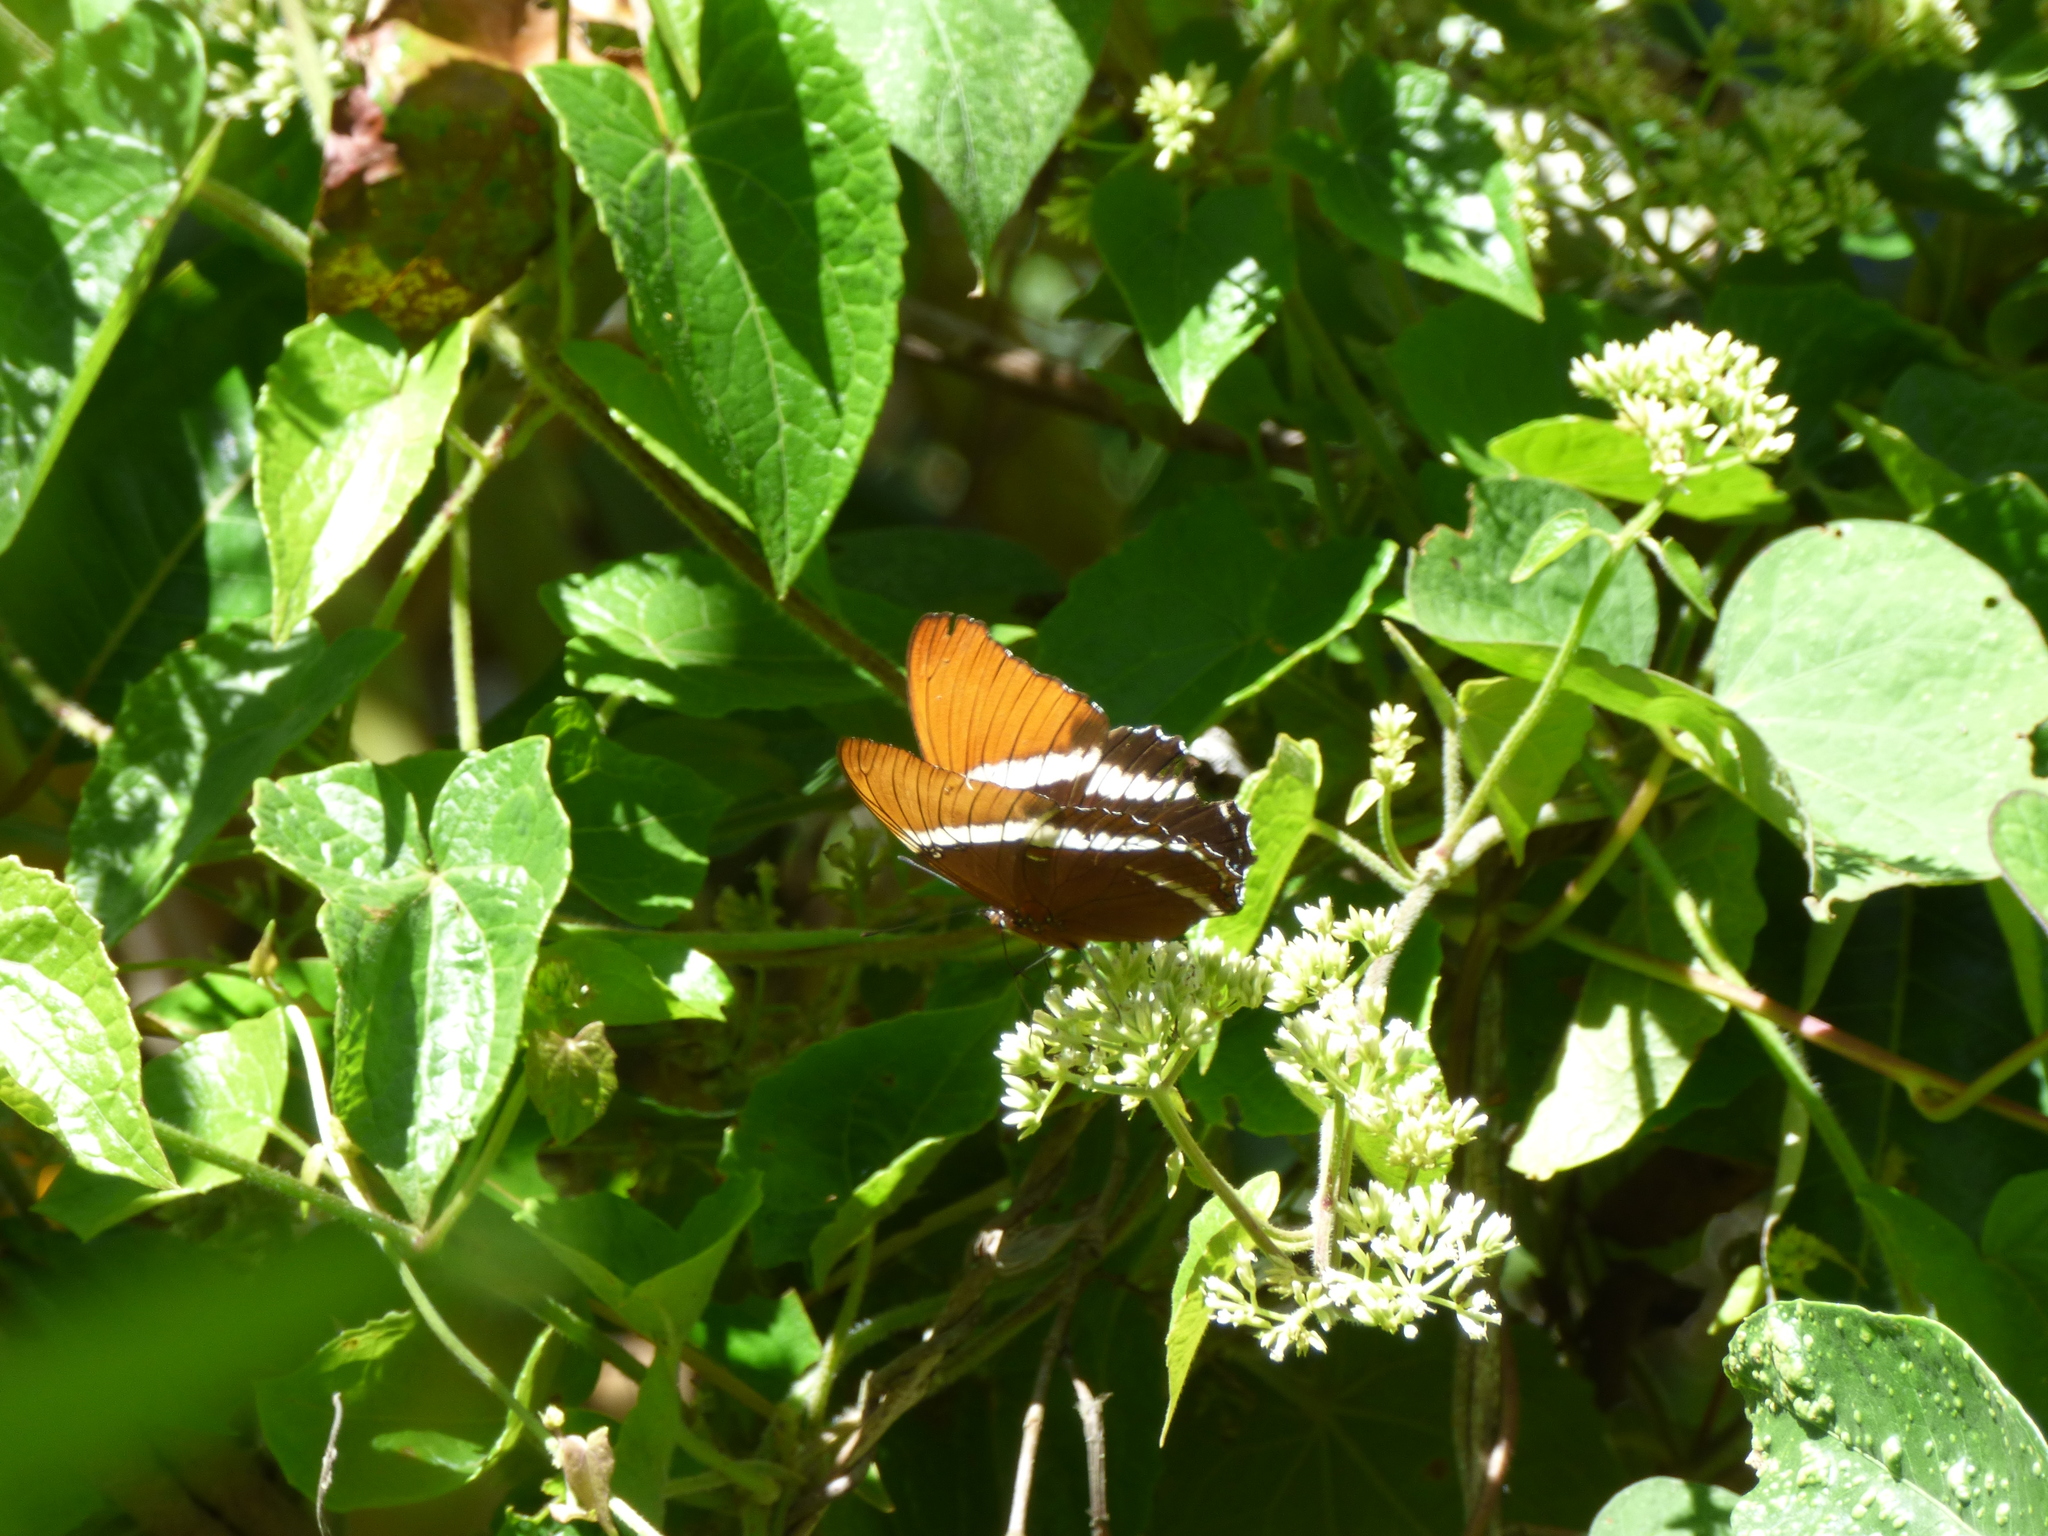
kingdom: Animalia
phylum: Arthropoda
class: Insecta
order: Lepidoptera
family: Nymphalidae
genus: Siproeta
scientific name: Siproeta epaphus
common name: Rusty-tipped page
